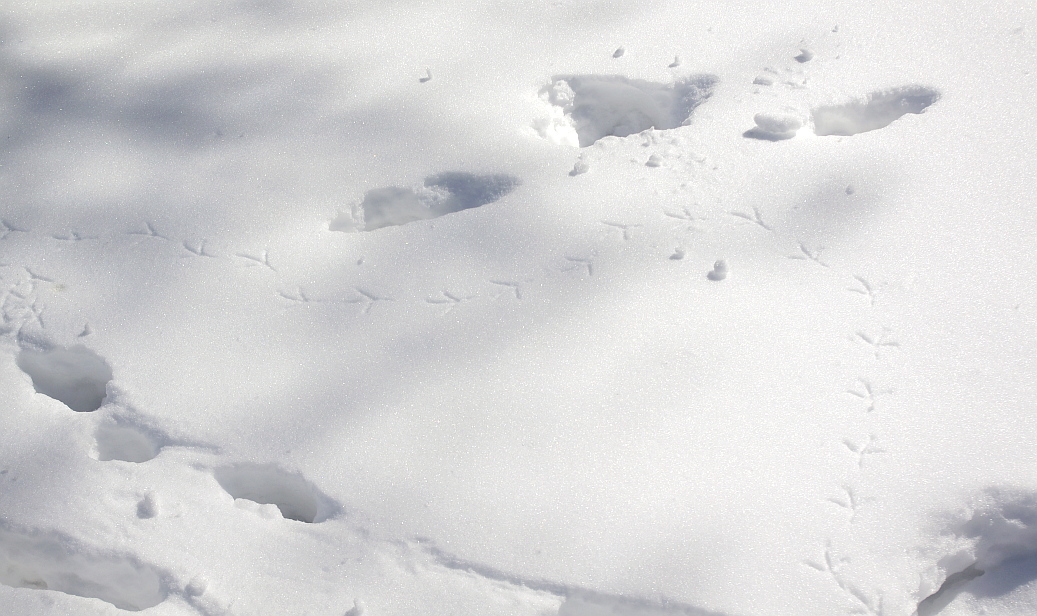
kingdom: Animalia
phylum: Chordata
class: Aves
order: Columbiformes
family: Columbidae
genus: Columba
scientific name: Columba livia
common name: Rock pigeon
